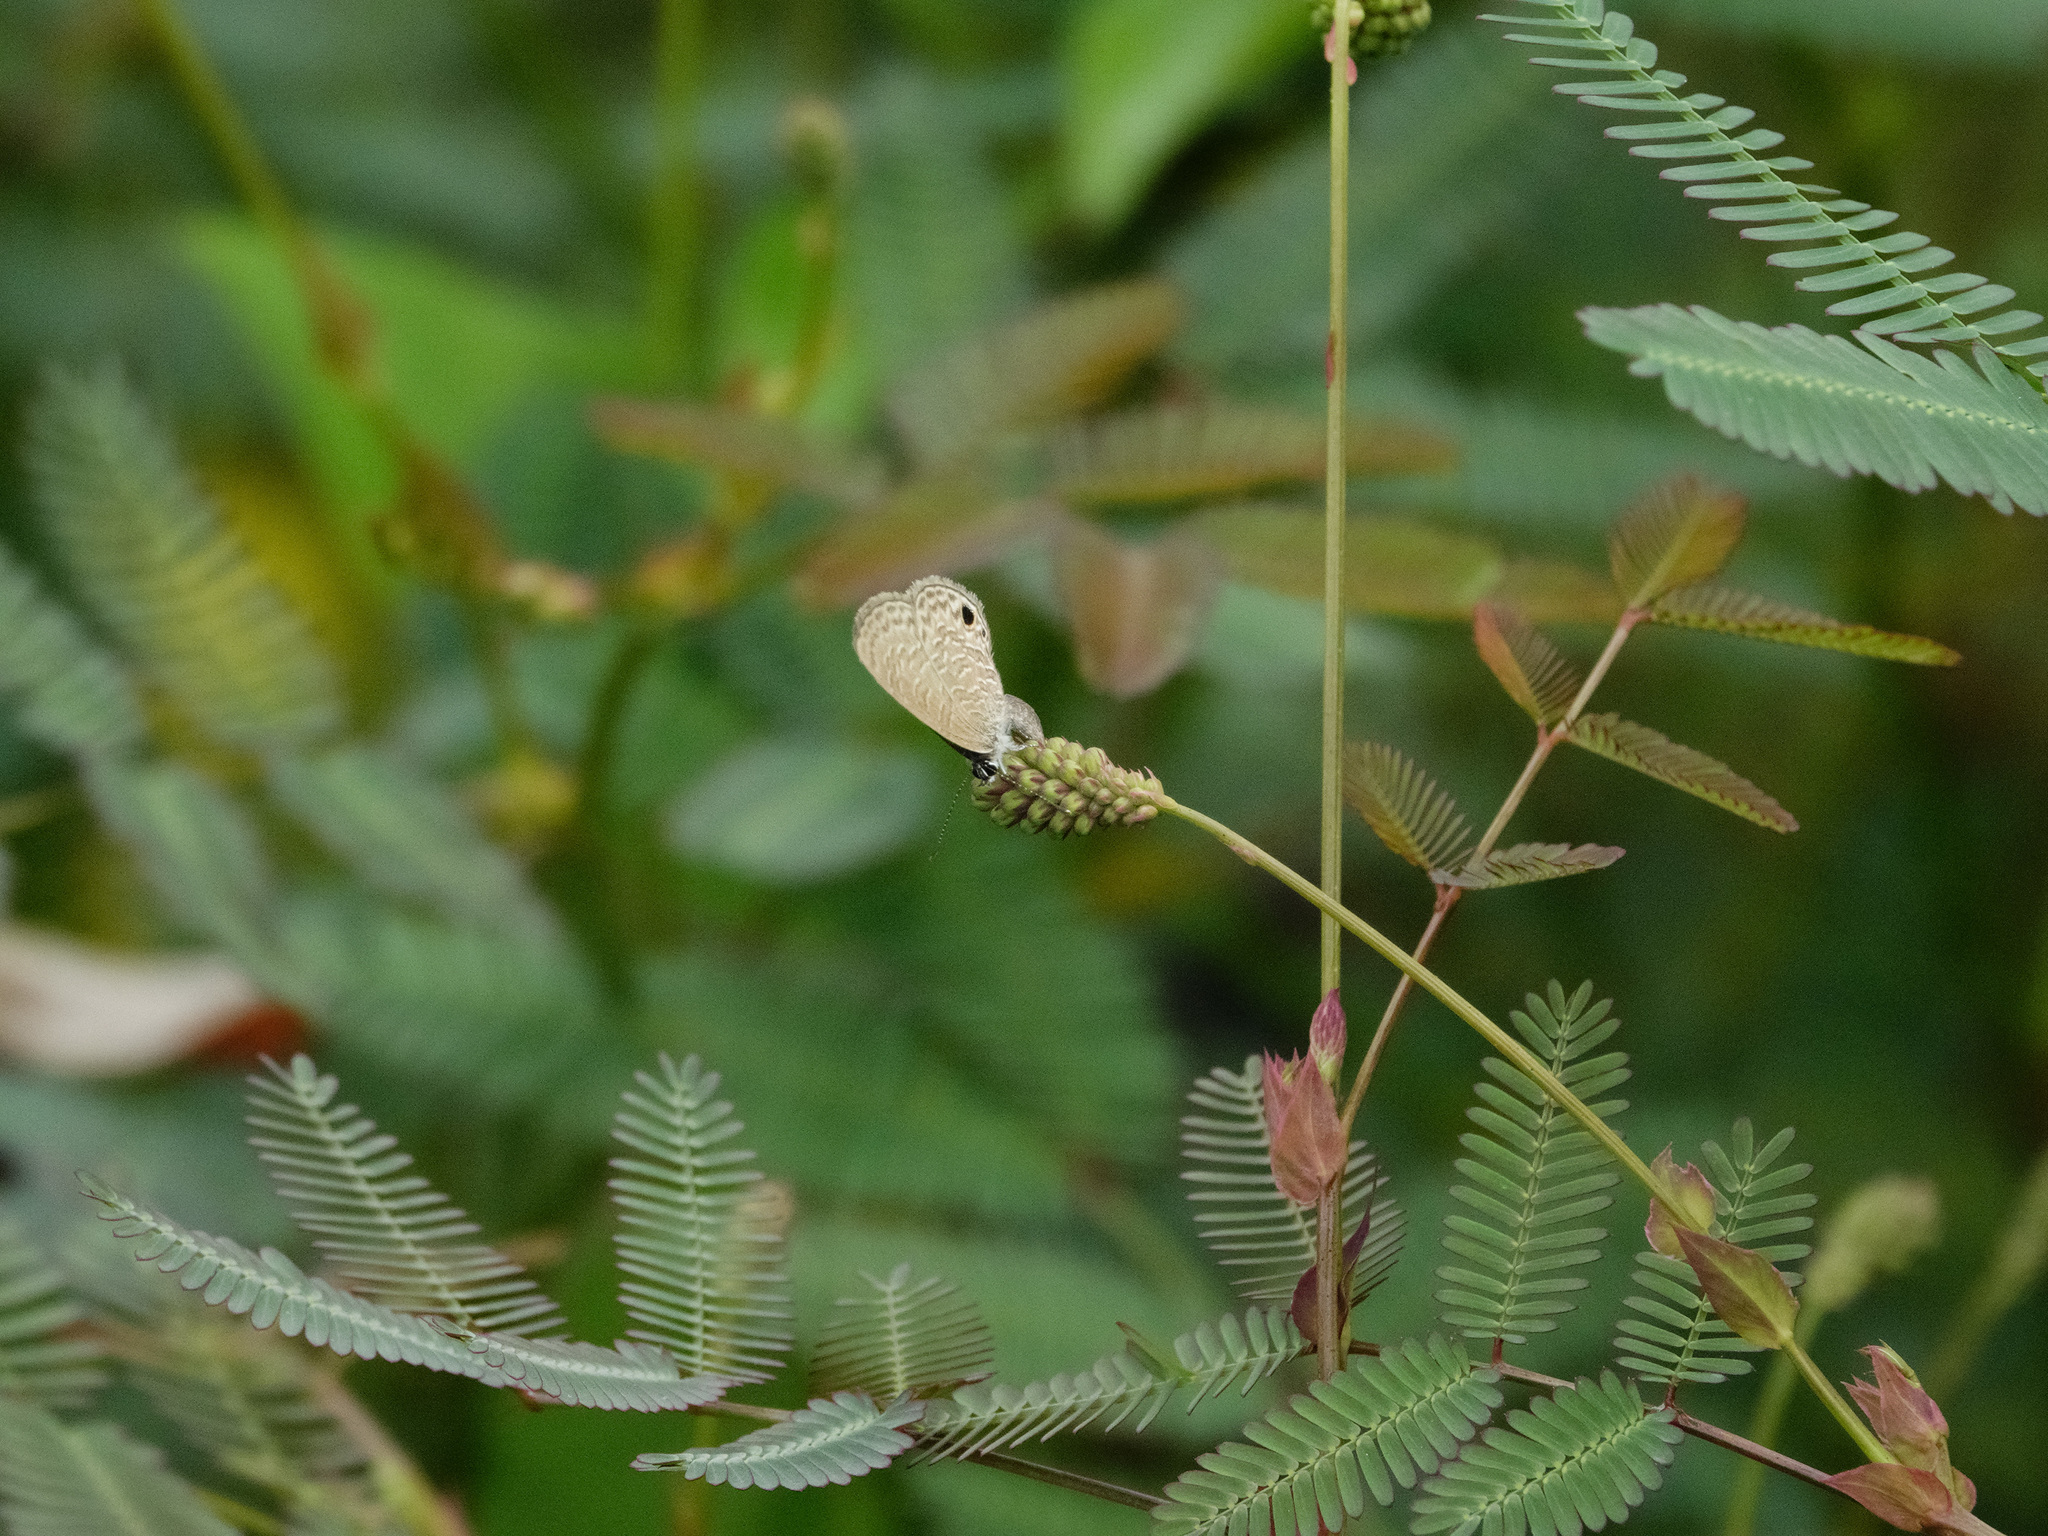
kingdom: Animalia
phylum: Arthropoda
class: Insecta
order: Lepidoptera
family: Lycaenidae
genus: Prosotas
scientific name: Prosotas dubiosa
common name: Tailless lineblue
